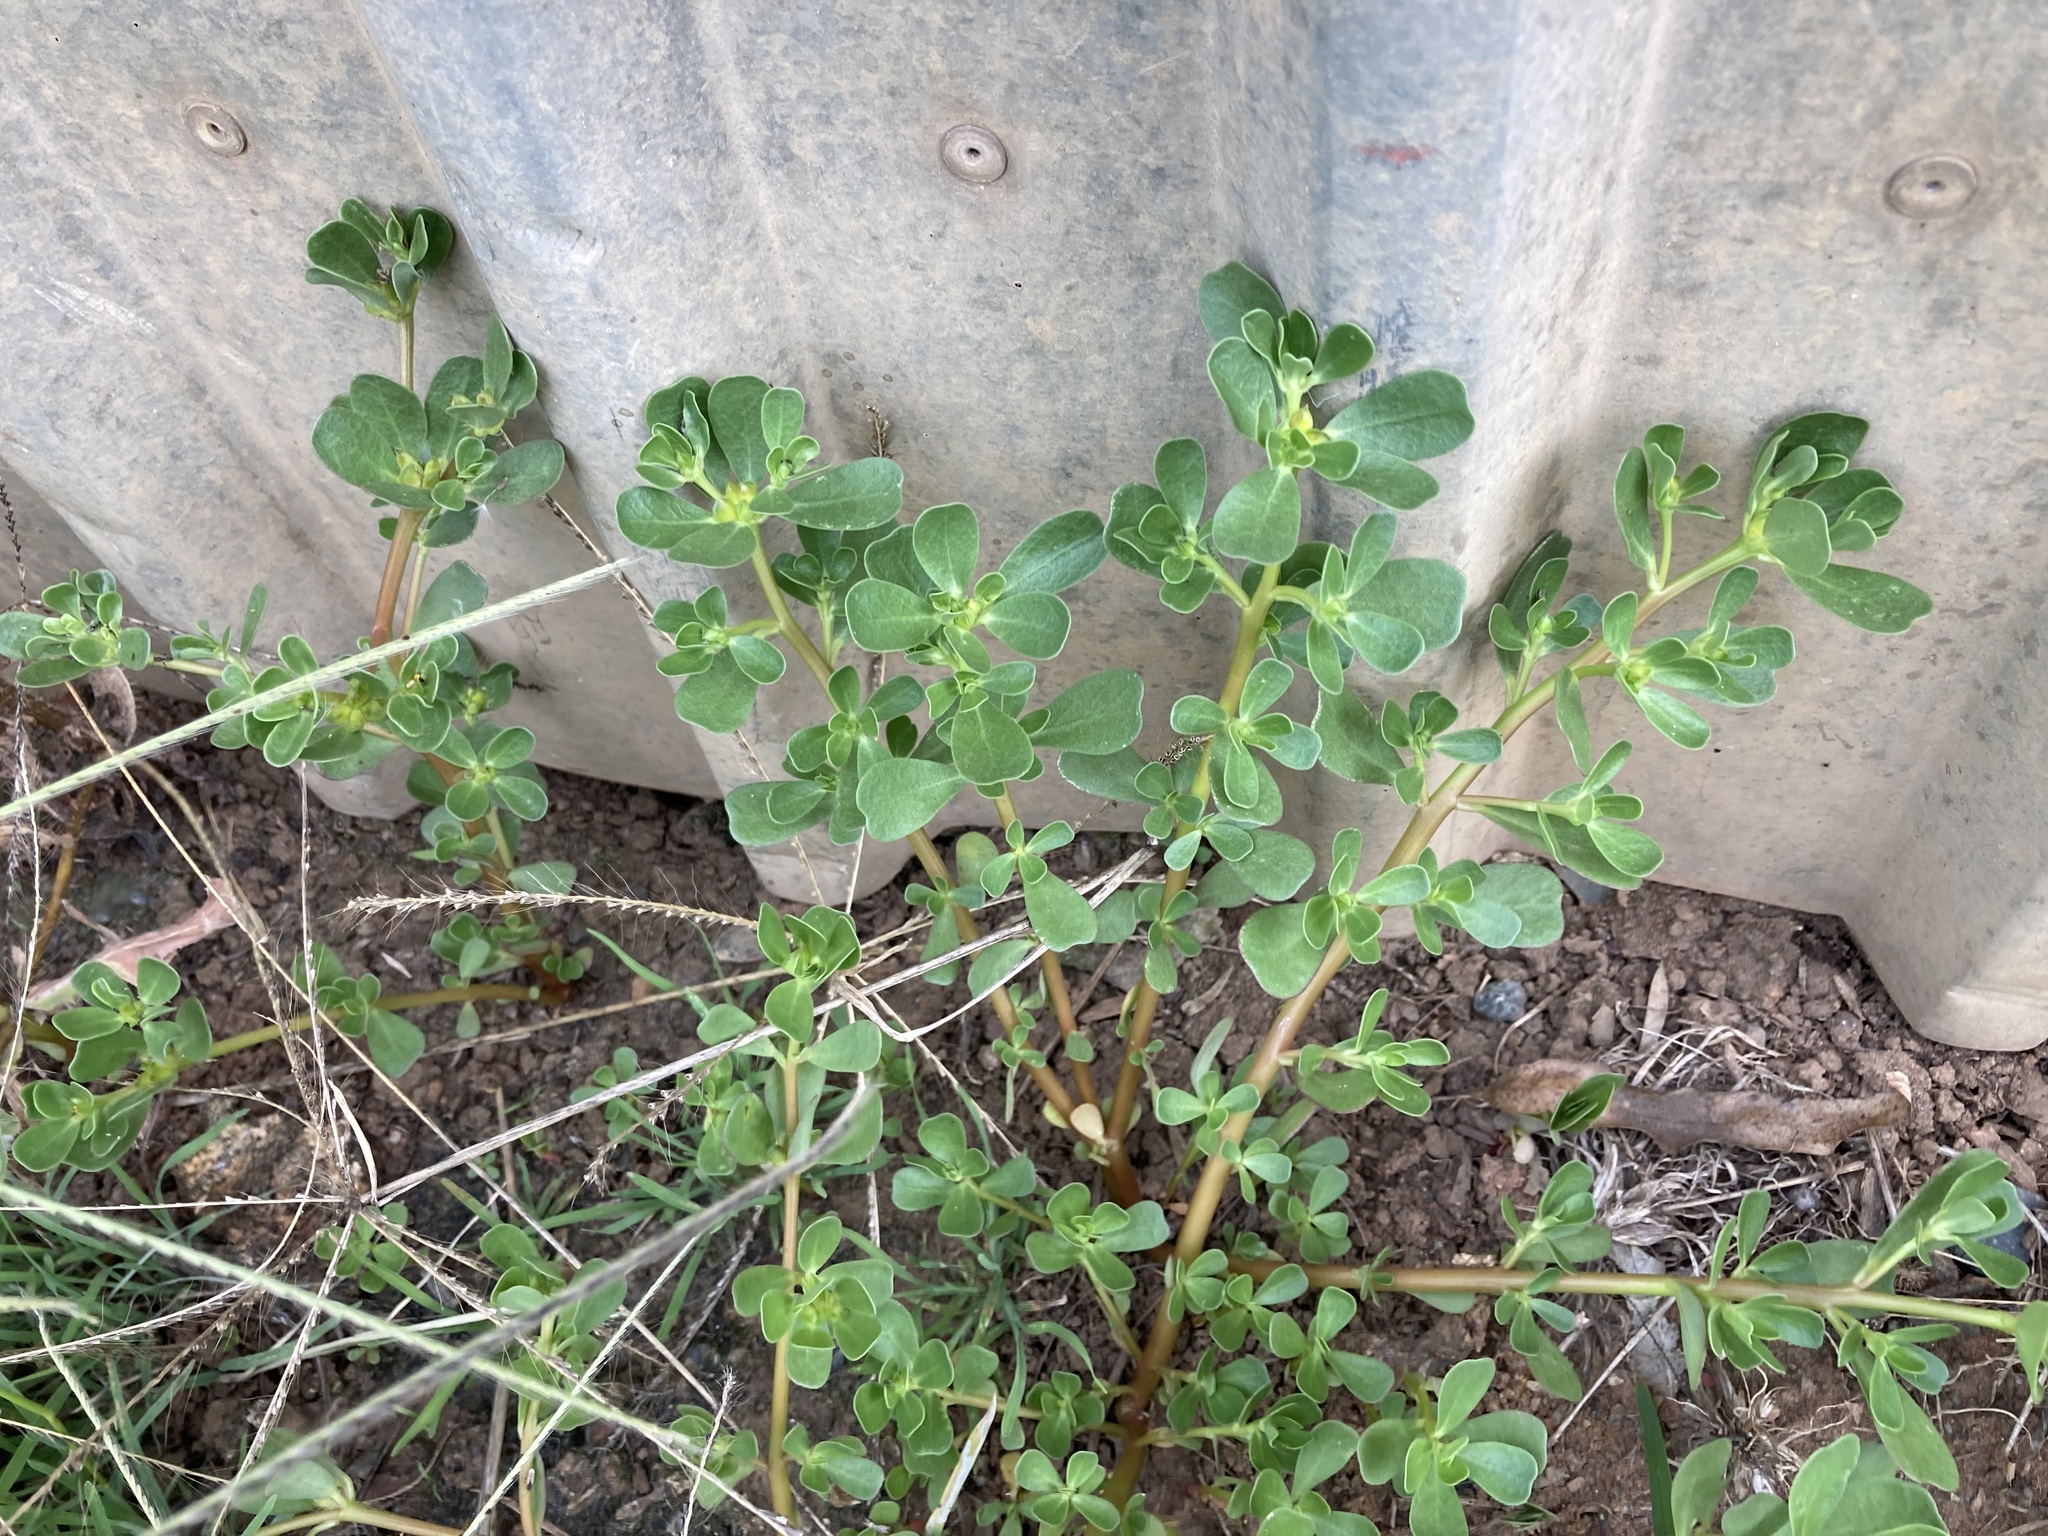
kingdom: Plantae
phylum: Tracheophyta
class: Magnoliopsida
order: Caryophyllales
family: Portulacaceae
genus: Portulaca
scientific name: Portulaca oleracea
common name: Common purslane
